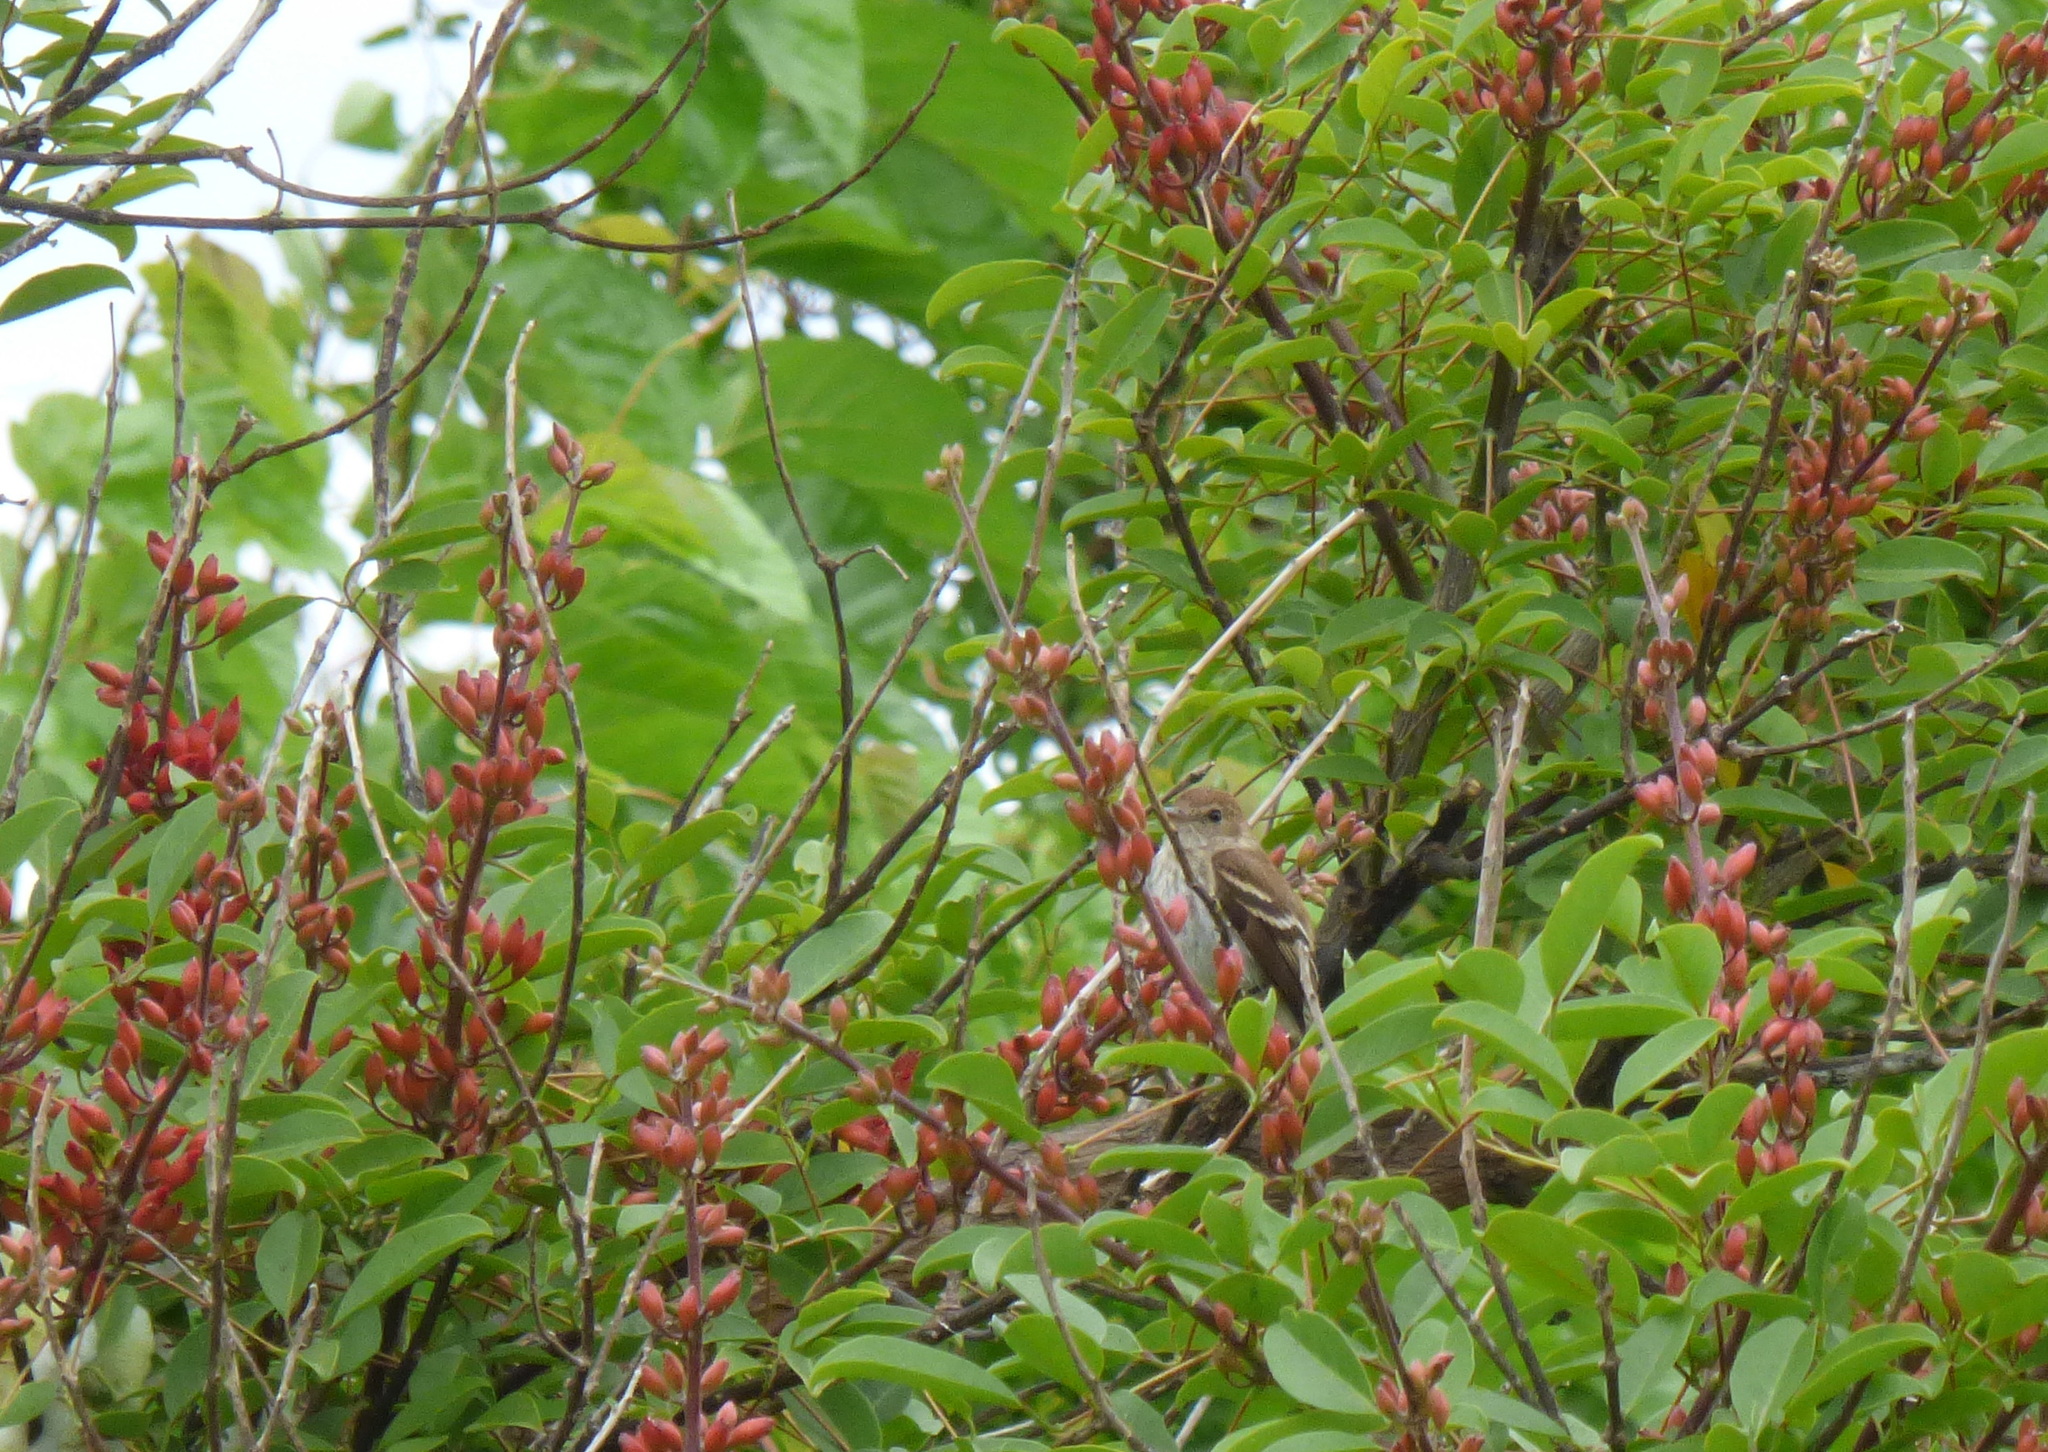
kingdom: Animalia
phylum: Chordata
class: Aves
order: Passeriformes
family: Tyrannidae
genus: Myiophobus
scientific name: Myiophobus fasciatus
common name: Bran-colored flycatcher
